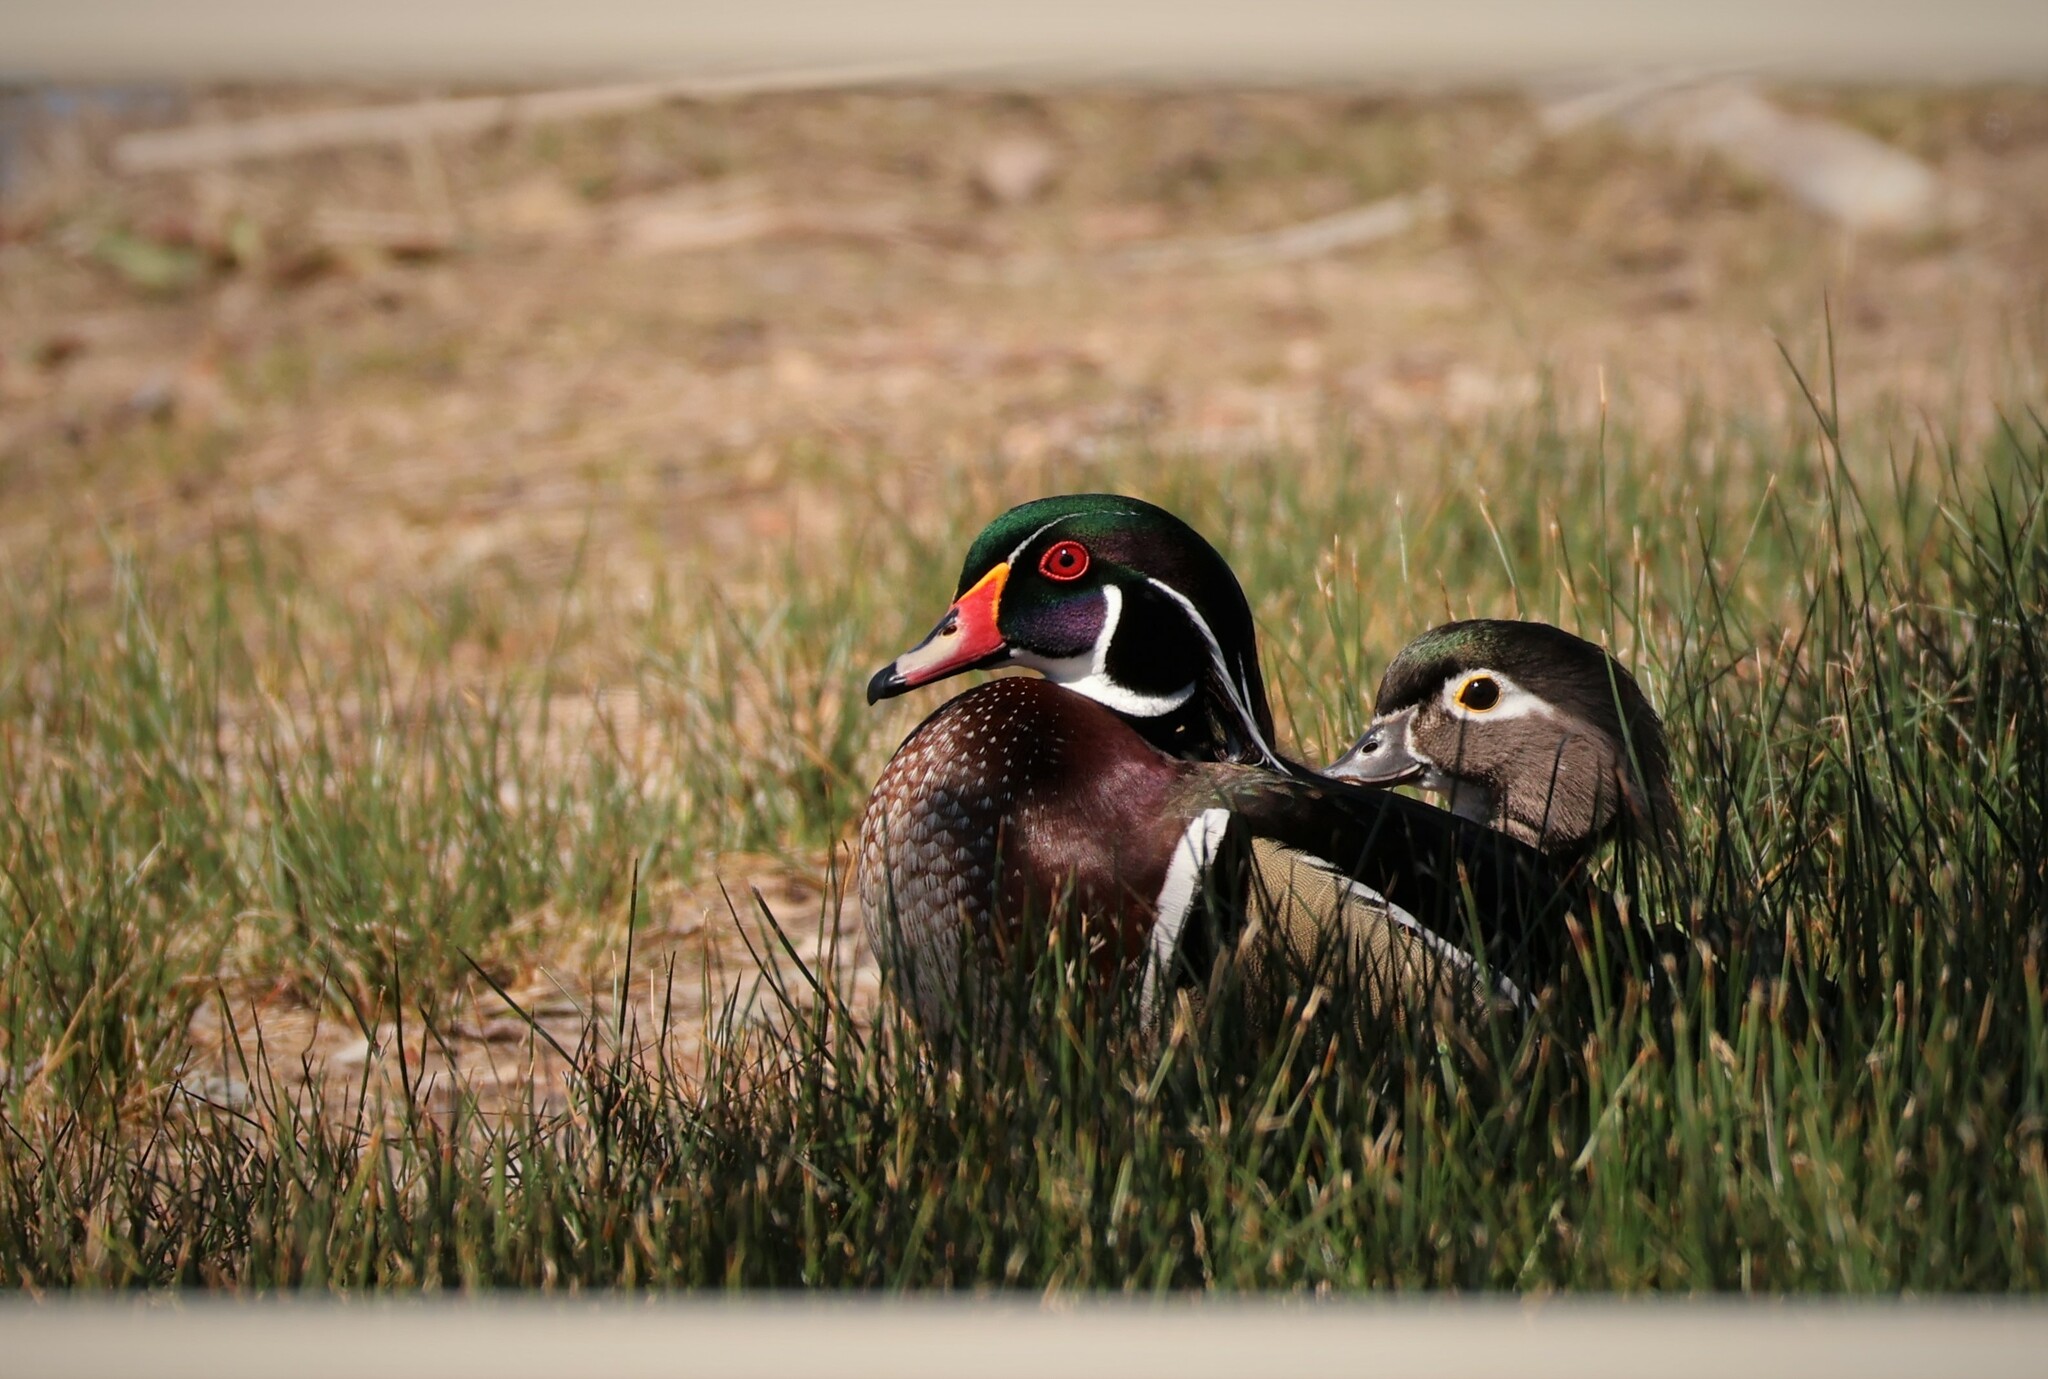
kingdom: Animalia
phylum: Chordata
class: Aves
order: Anseriformes
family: Anatidae
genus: Aix
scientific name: Aix sponsa
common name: Wood duck
